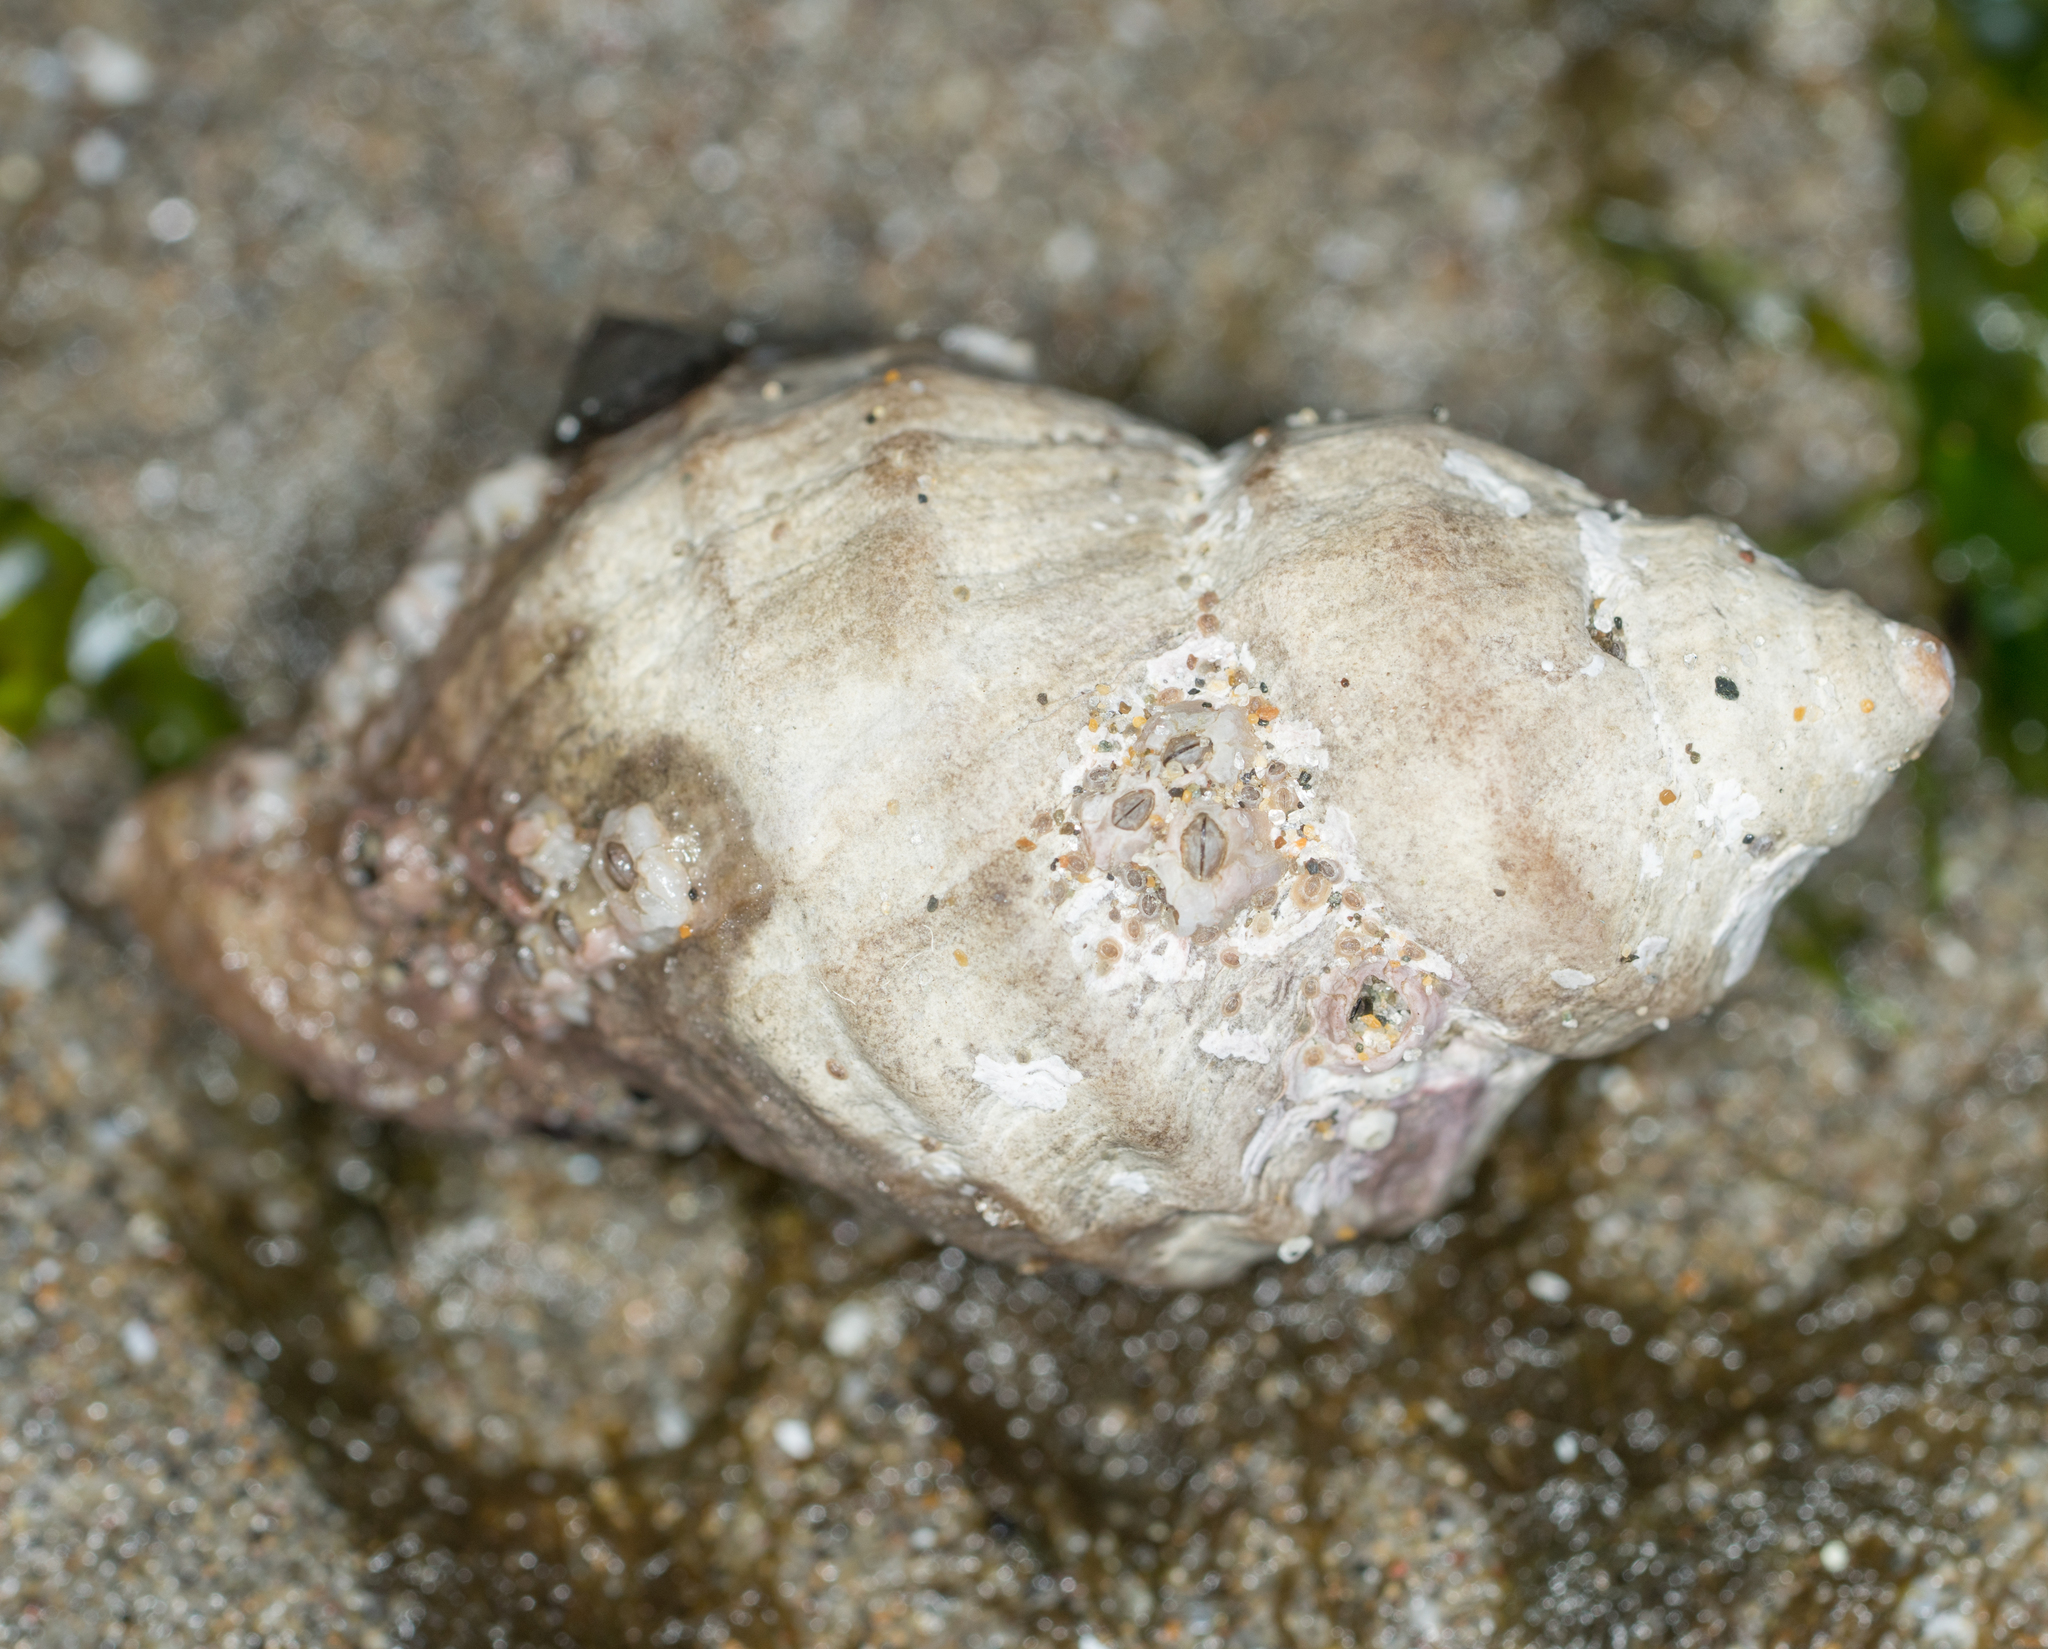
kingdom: Animalia
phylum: Mollusca
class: Gastropoda
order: Neogastropoda
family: Muricidae
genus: Nucella
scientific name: Nucella lamellosa
